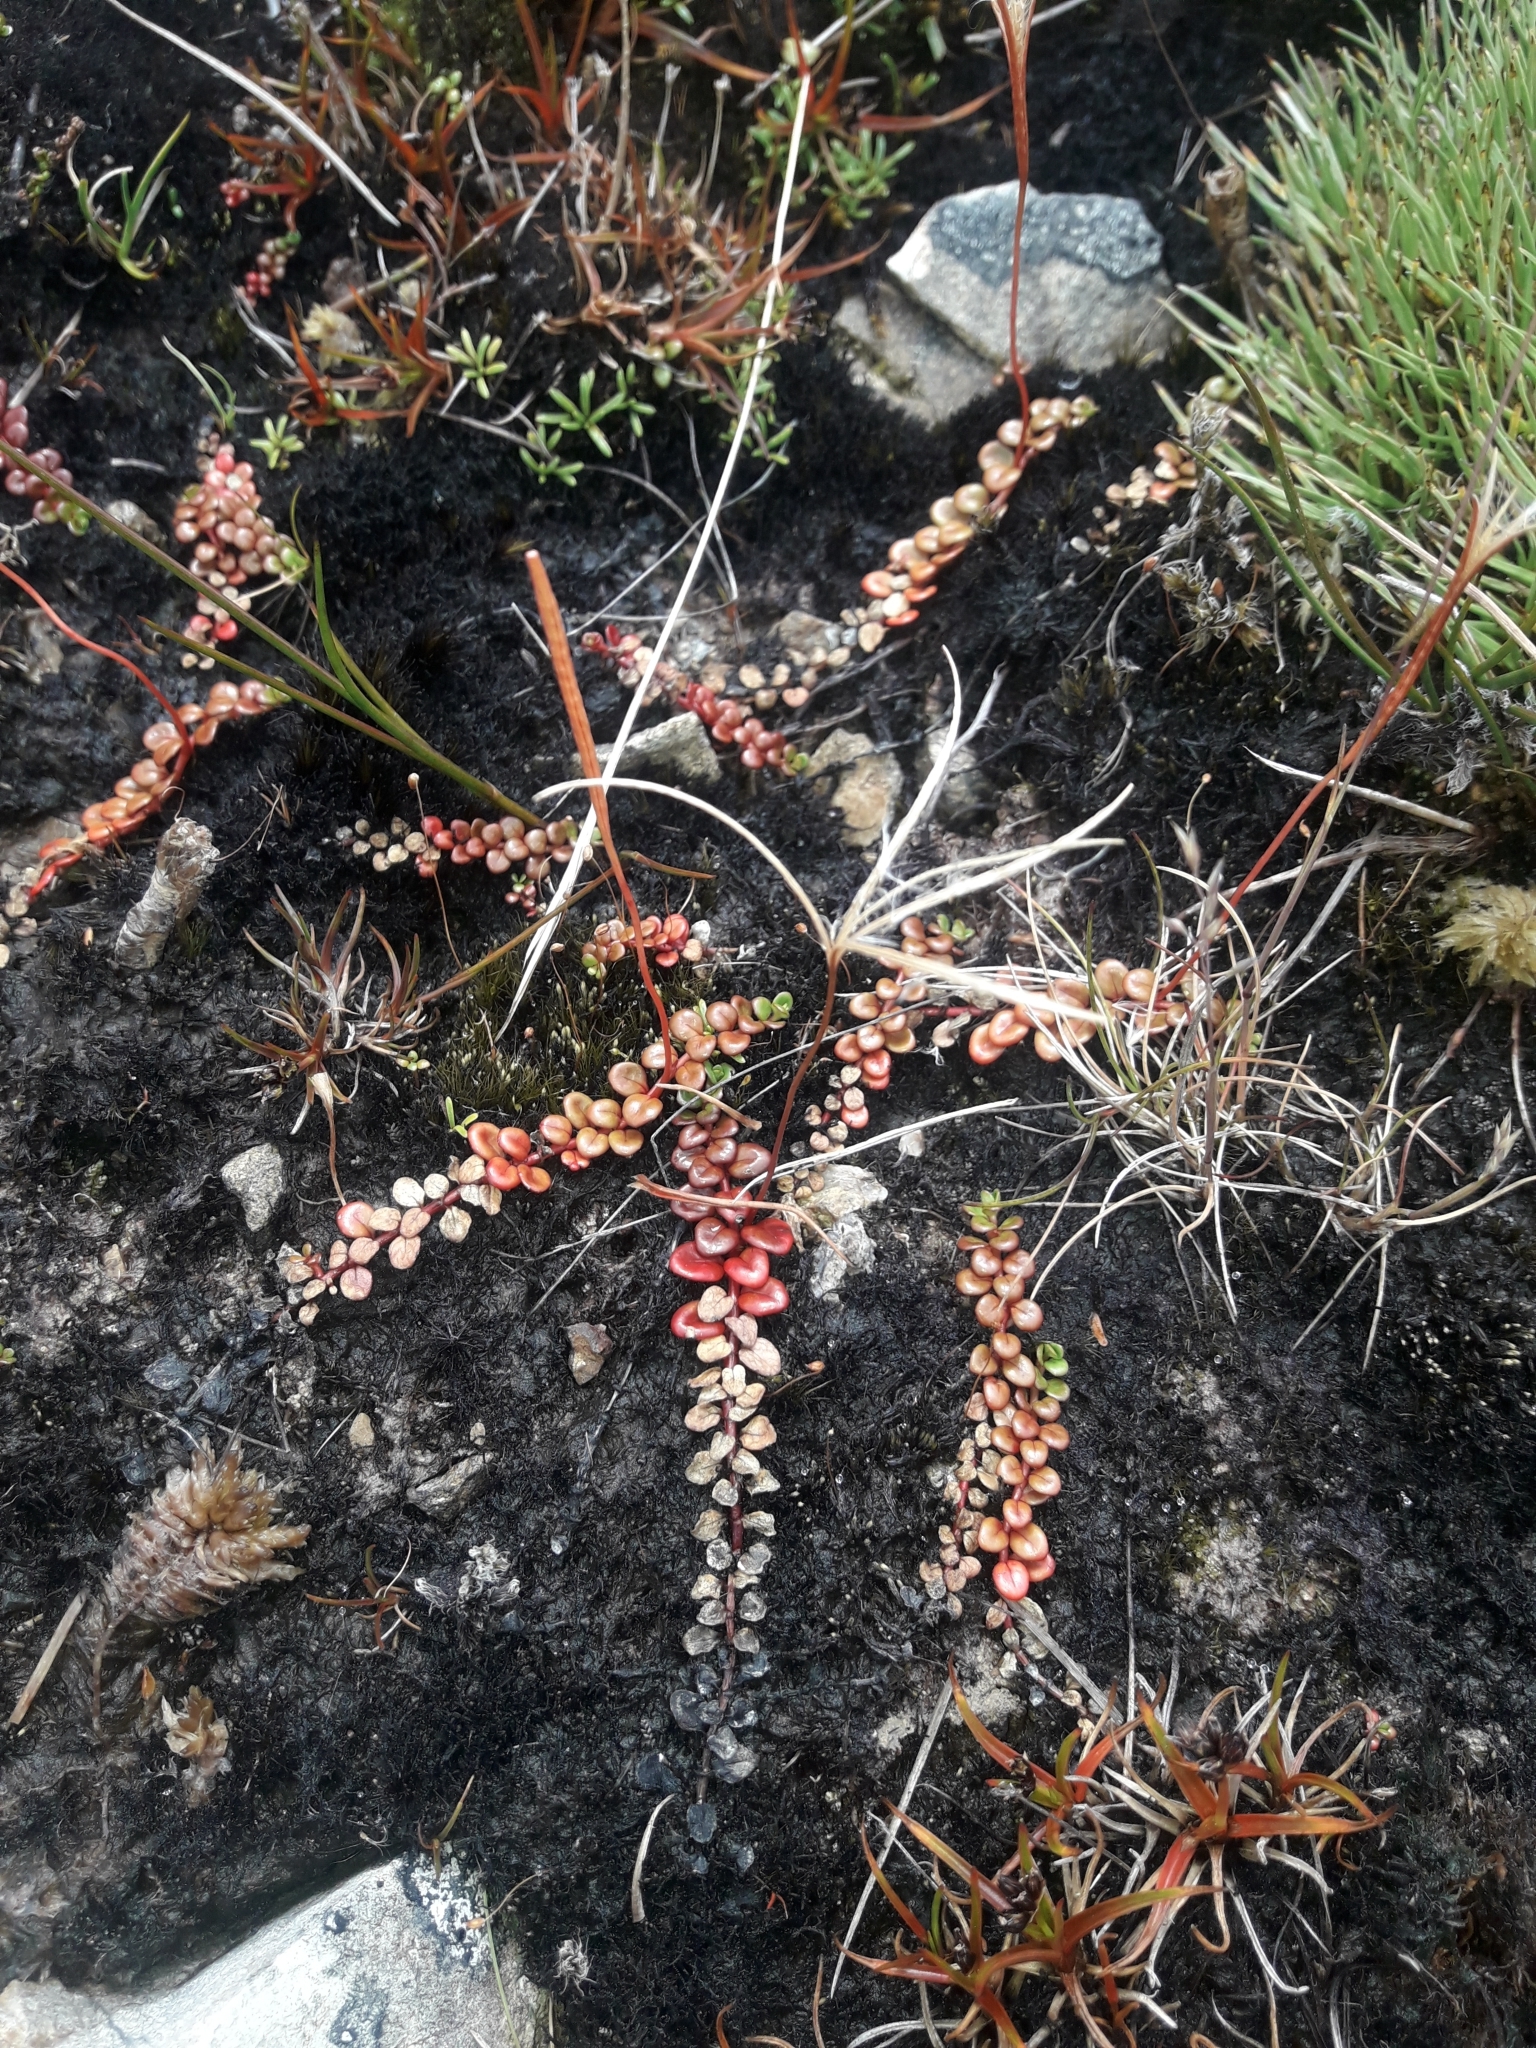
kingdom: Plantae
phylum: Tracheophyta
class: Magnoliopsida
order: Myrtales
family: Onagraceae
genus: Epilobium
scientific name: Epilobium pernitens
